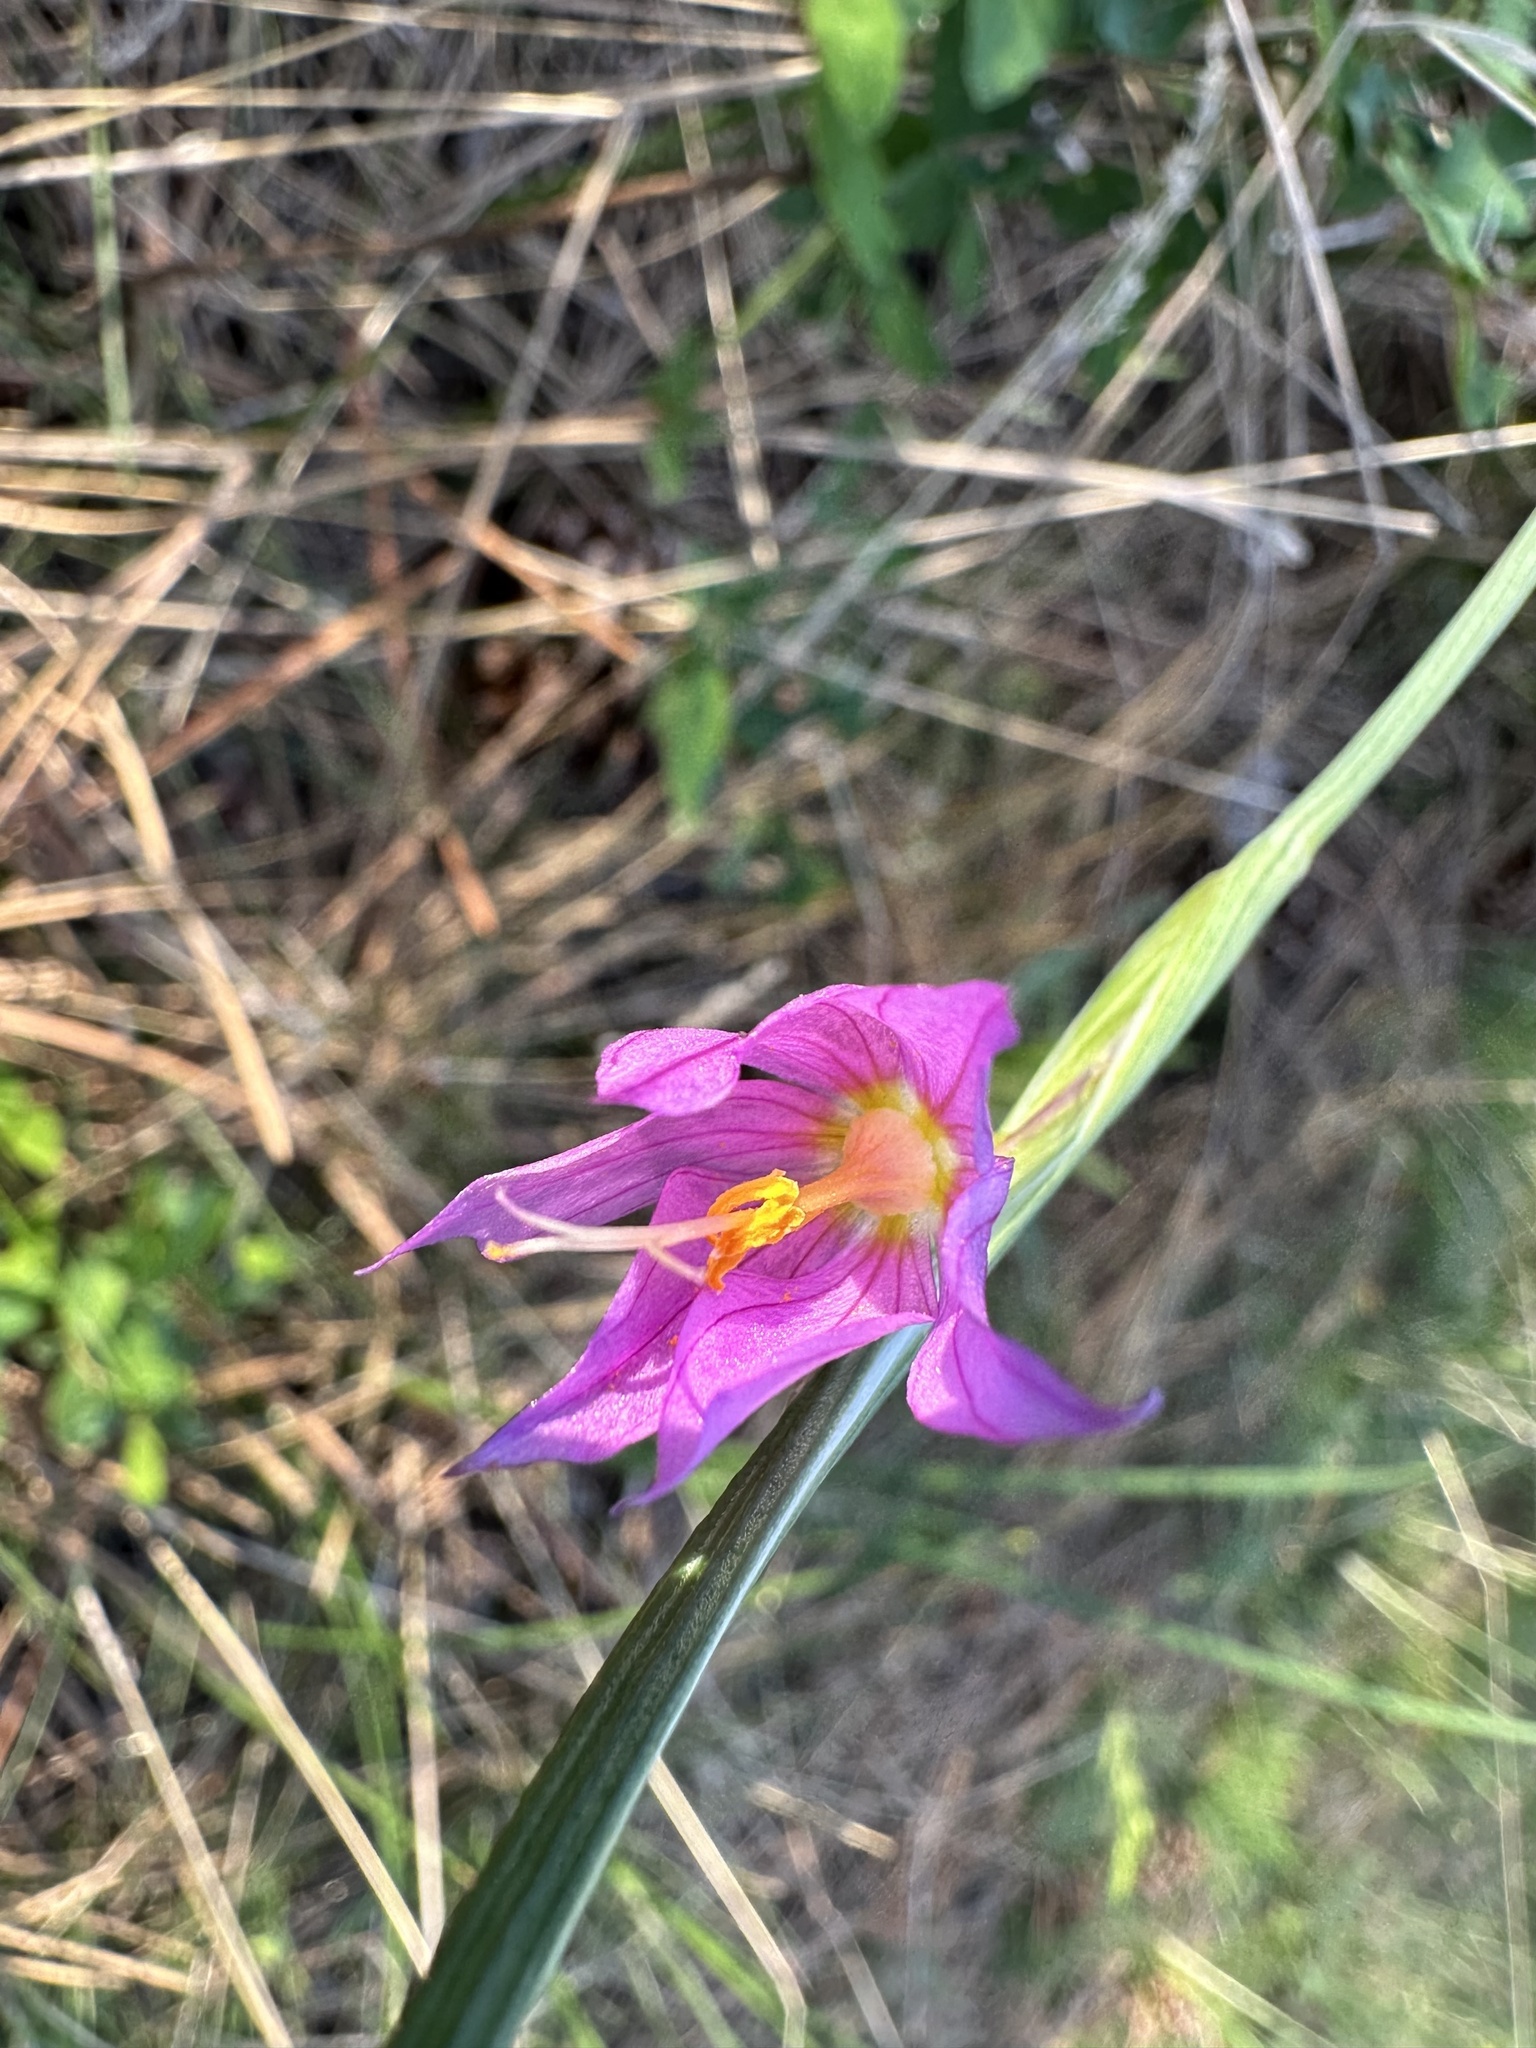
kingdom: Plantae
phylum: Tracheophyta
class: Liliopsida
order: Asparagales
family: Iridaceae
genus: Olsynium
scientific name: Olsynium douglasii
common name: Douglas' grasswidow
